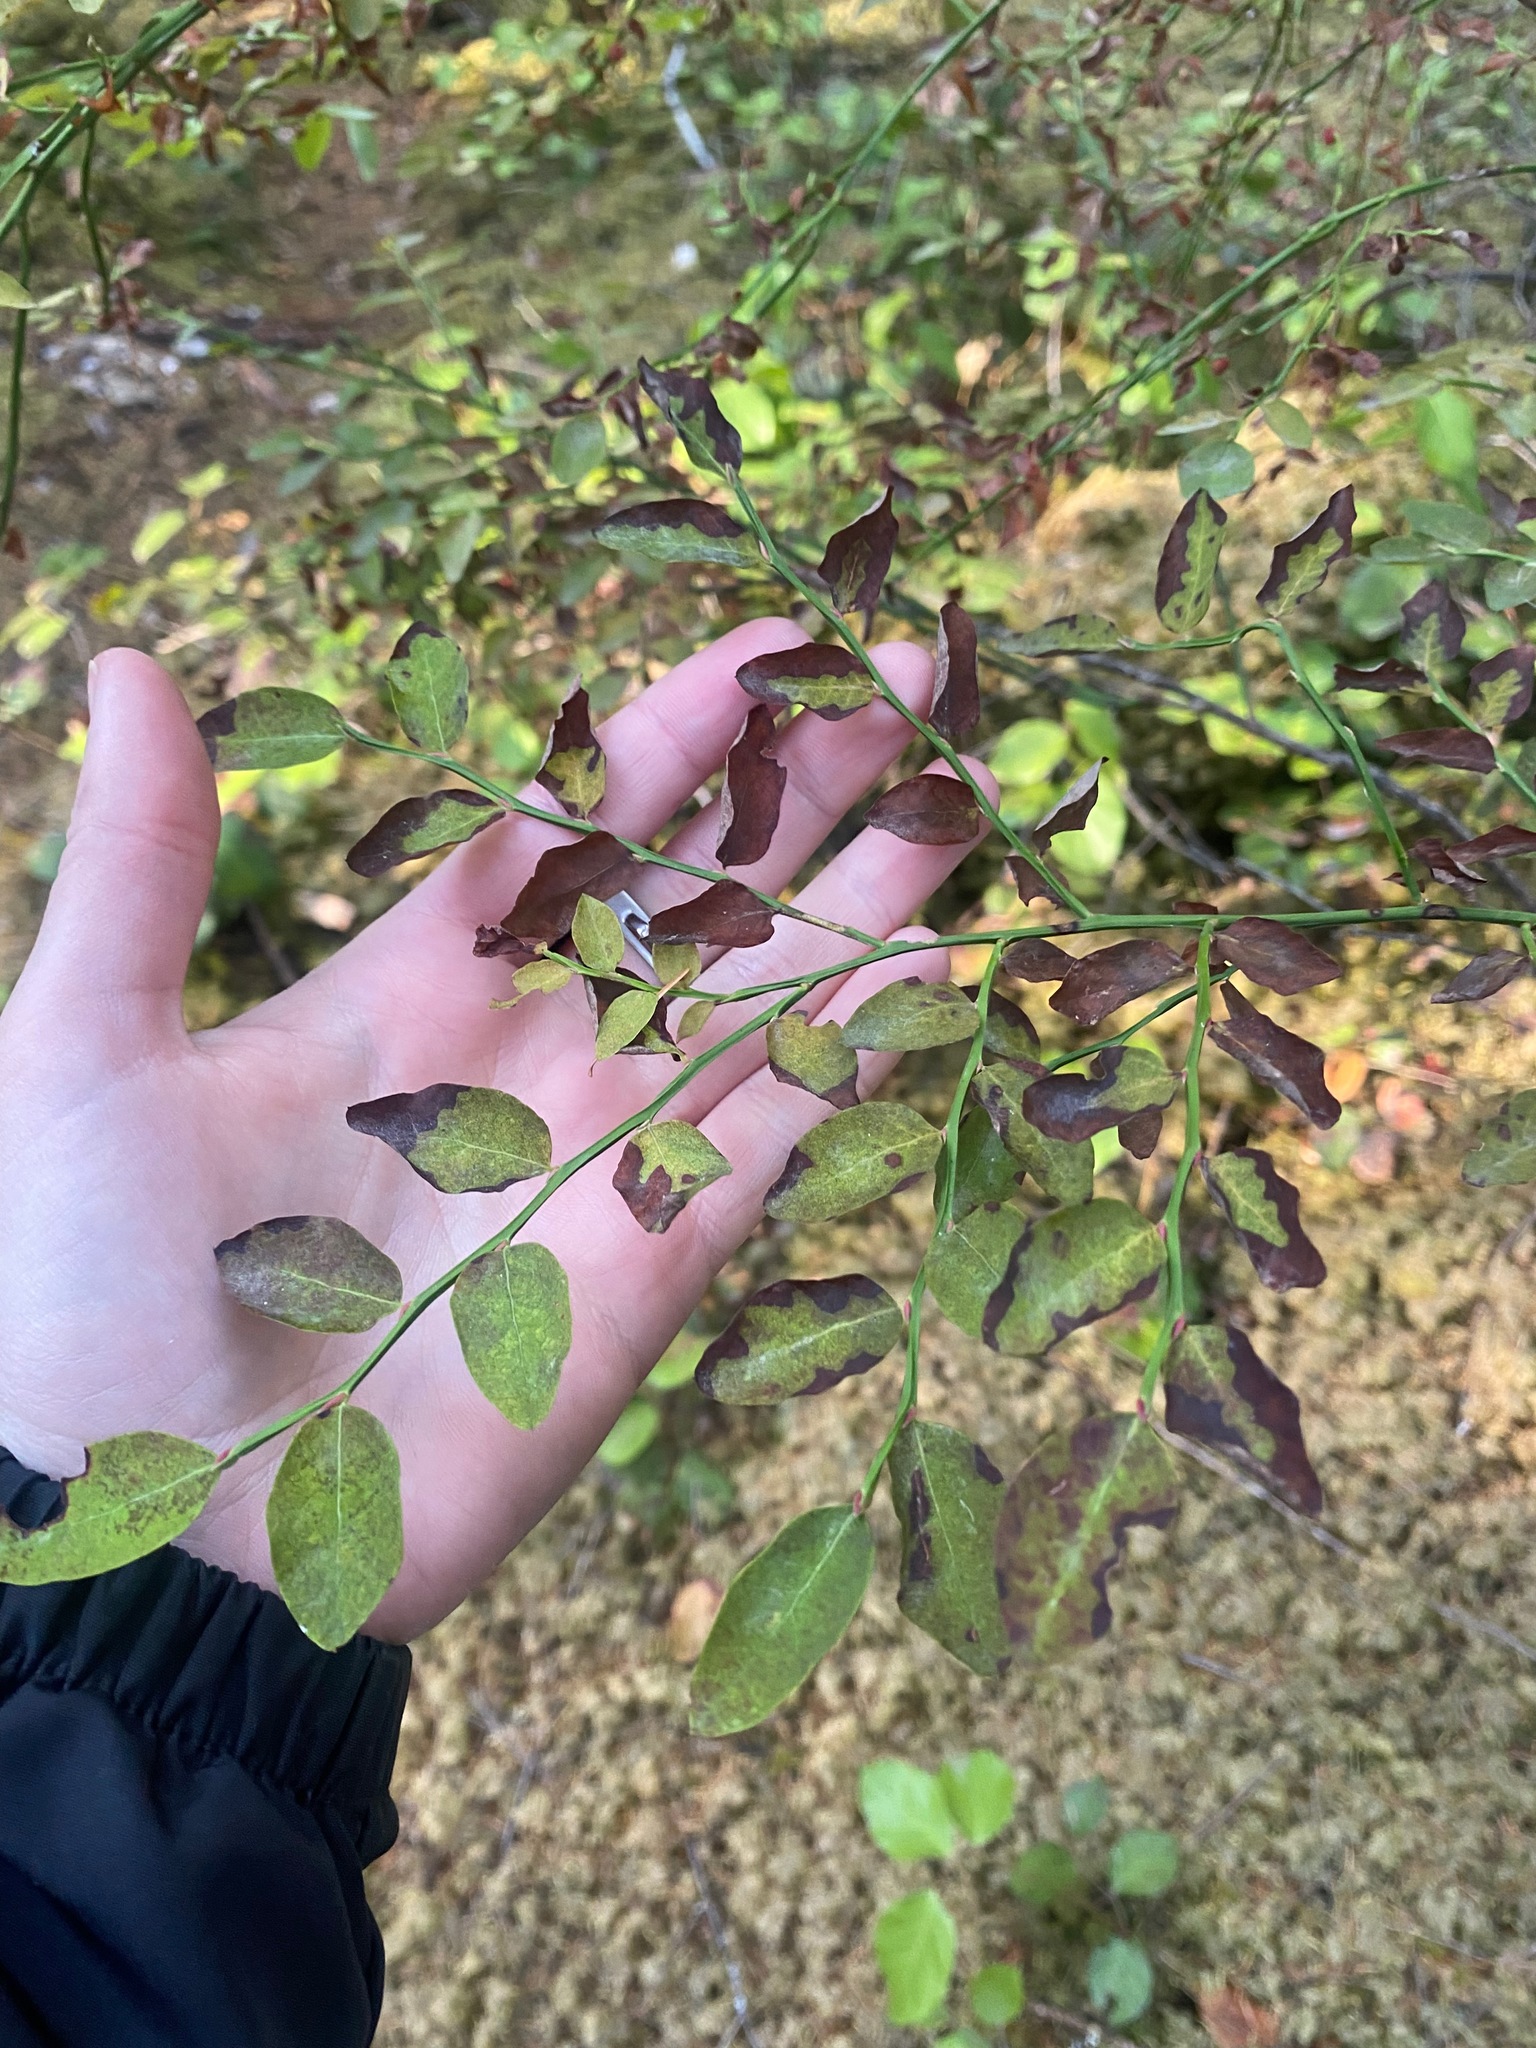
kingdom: Plantae
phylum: Tracheophyta
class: Magnoliopsida
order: Ericales
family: Ericaceae
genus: Vaccinium
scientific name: Vaccinium parvifolium
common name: Red-huckleberry
